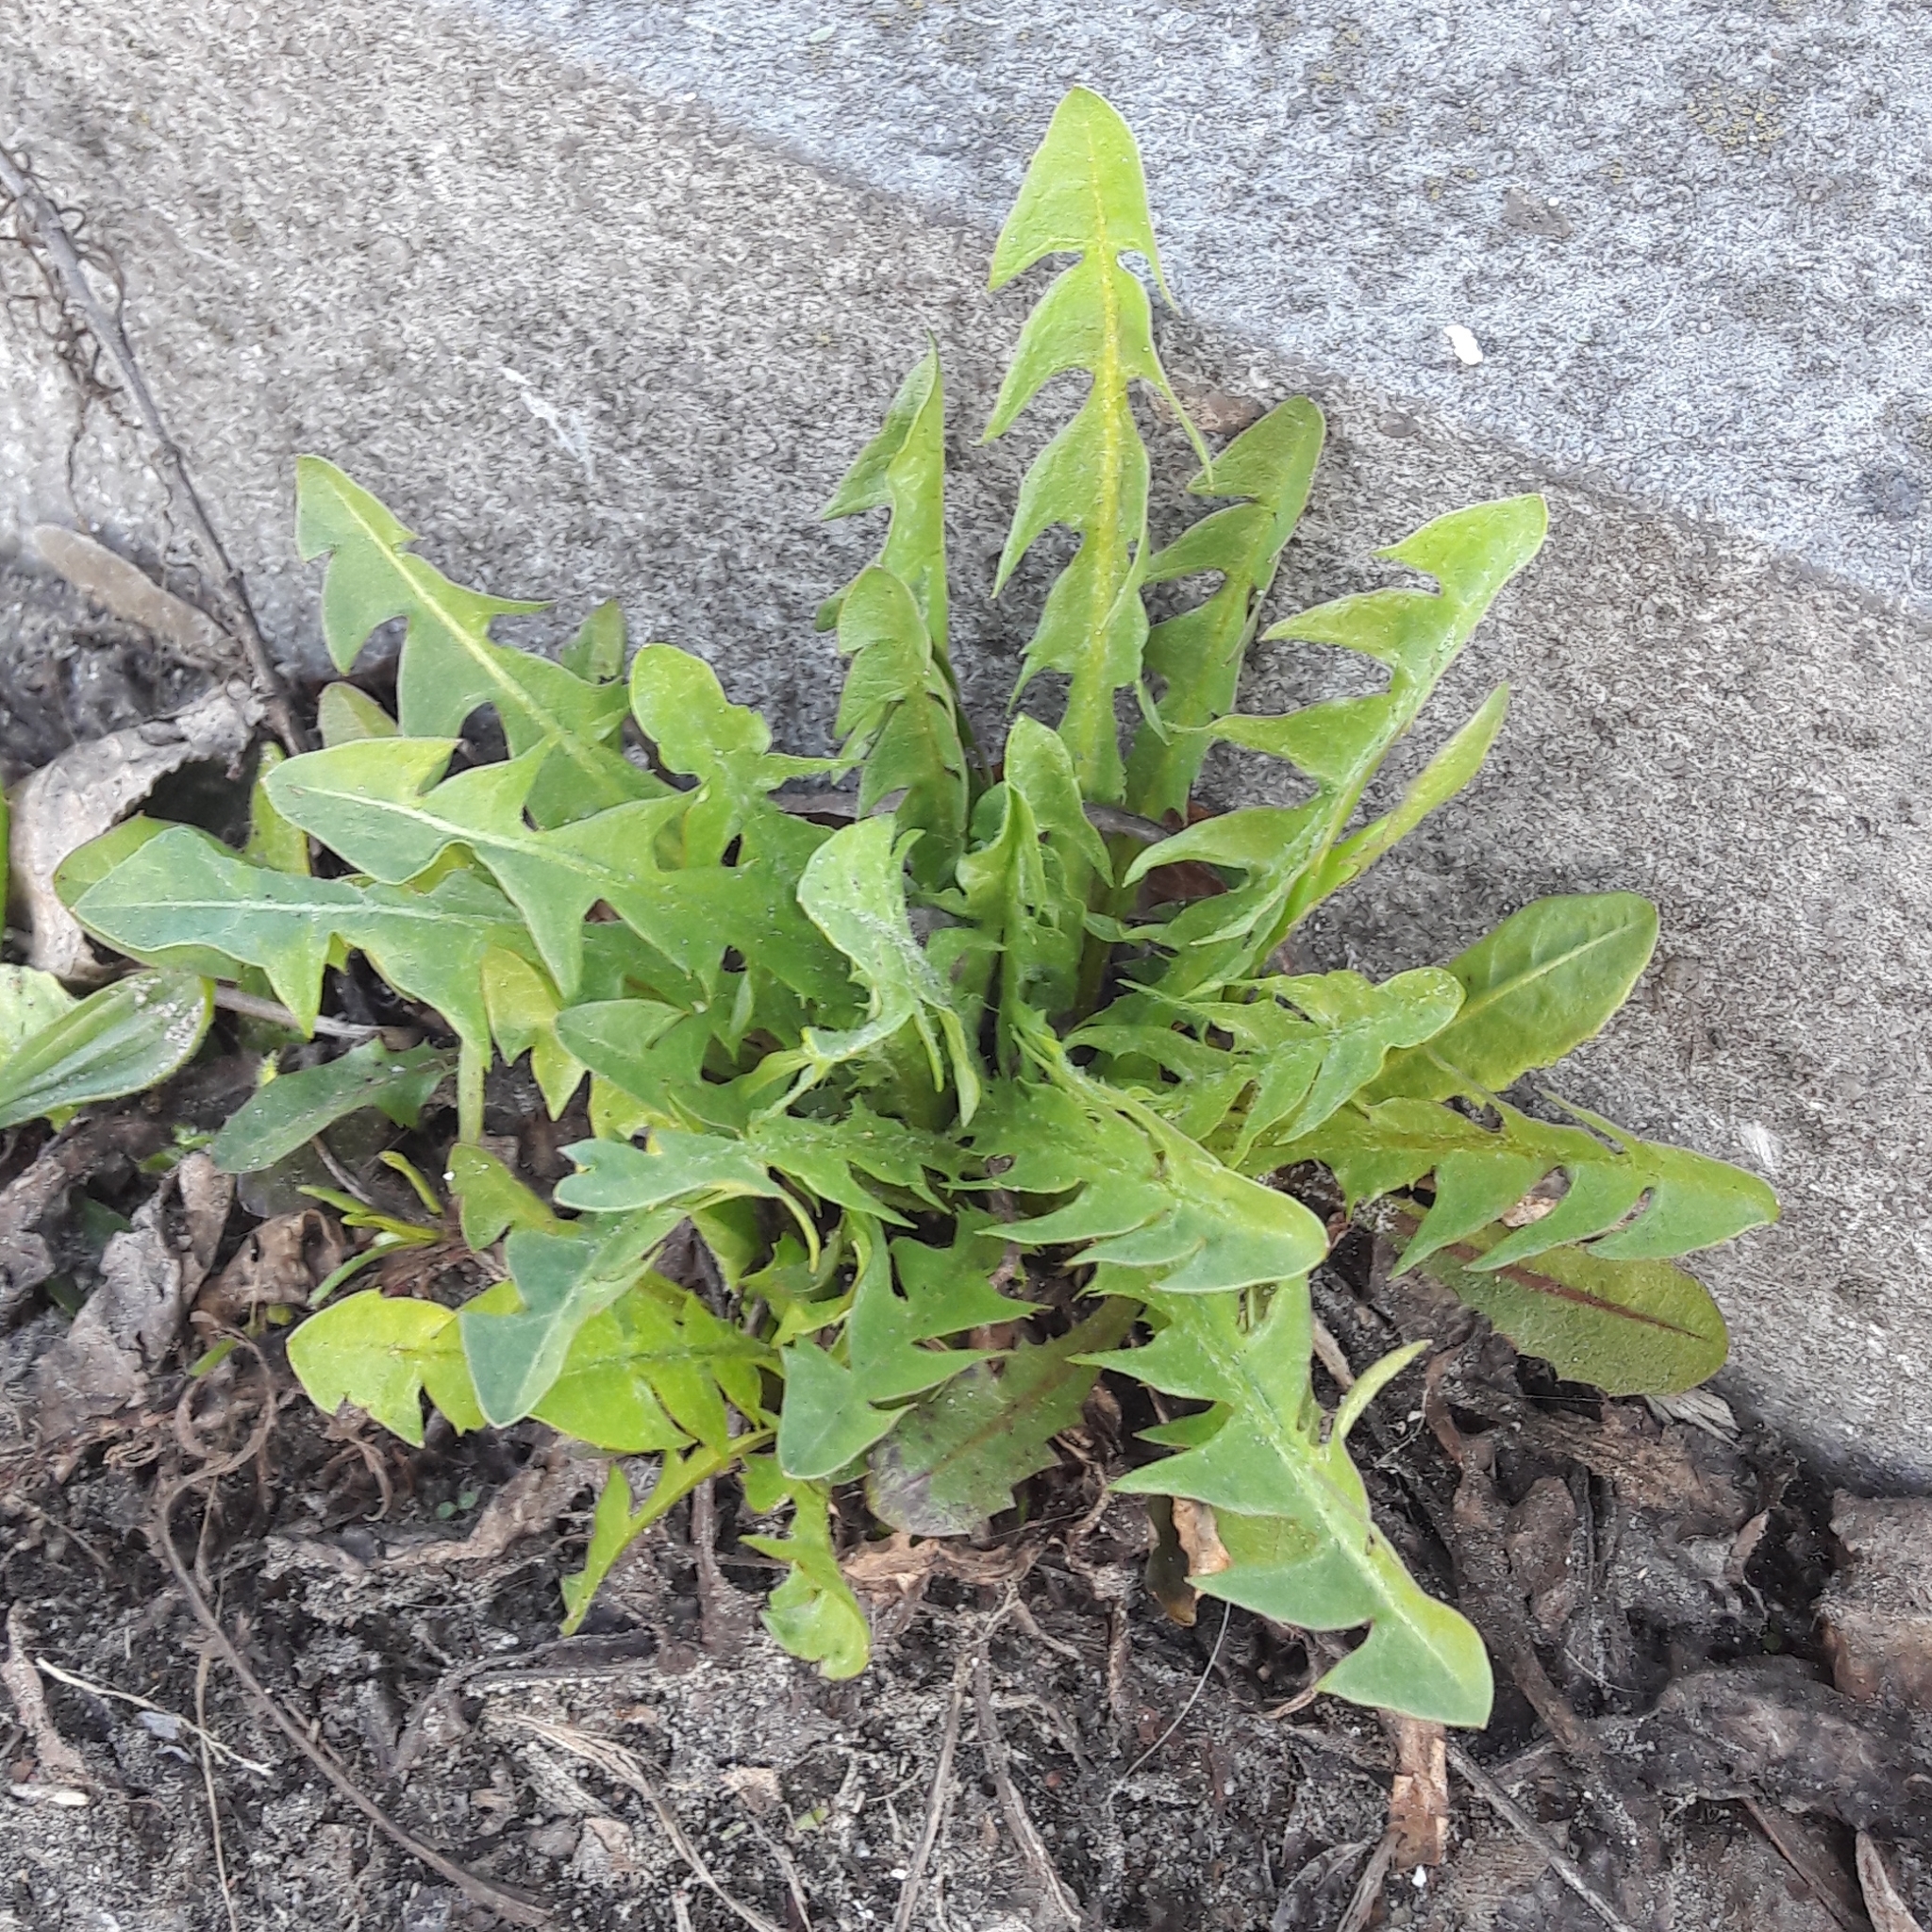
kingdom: Plantae
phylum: Tracheophyta
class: Magnoliopsida
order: Asterales
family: Asteraceae
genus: Taraxacum
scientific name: Taraxacum officinale
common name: Common dandelion
